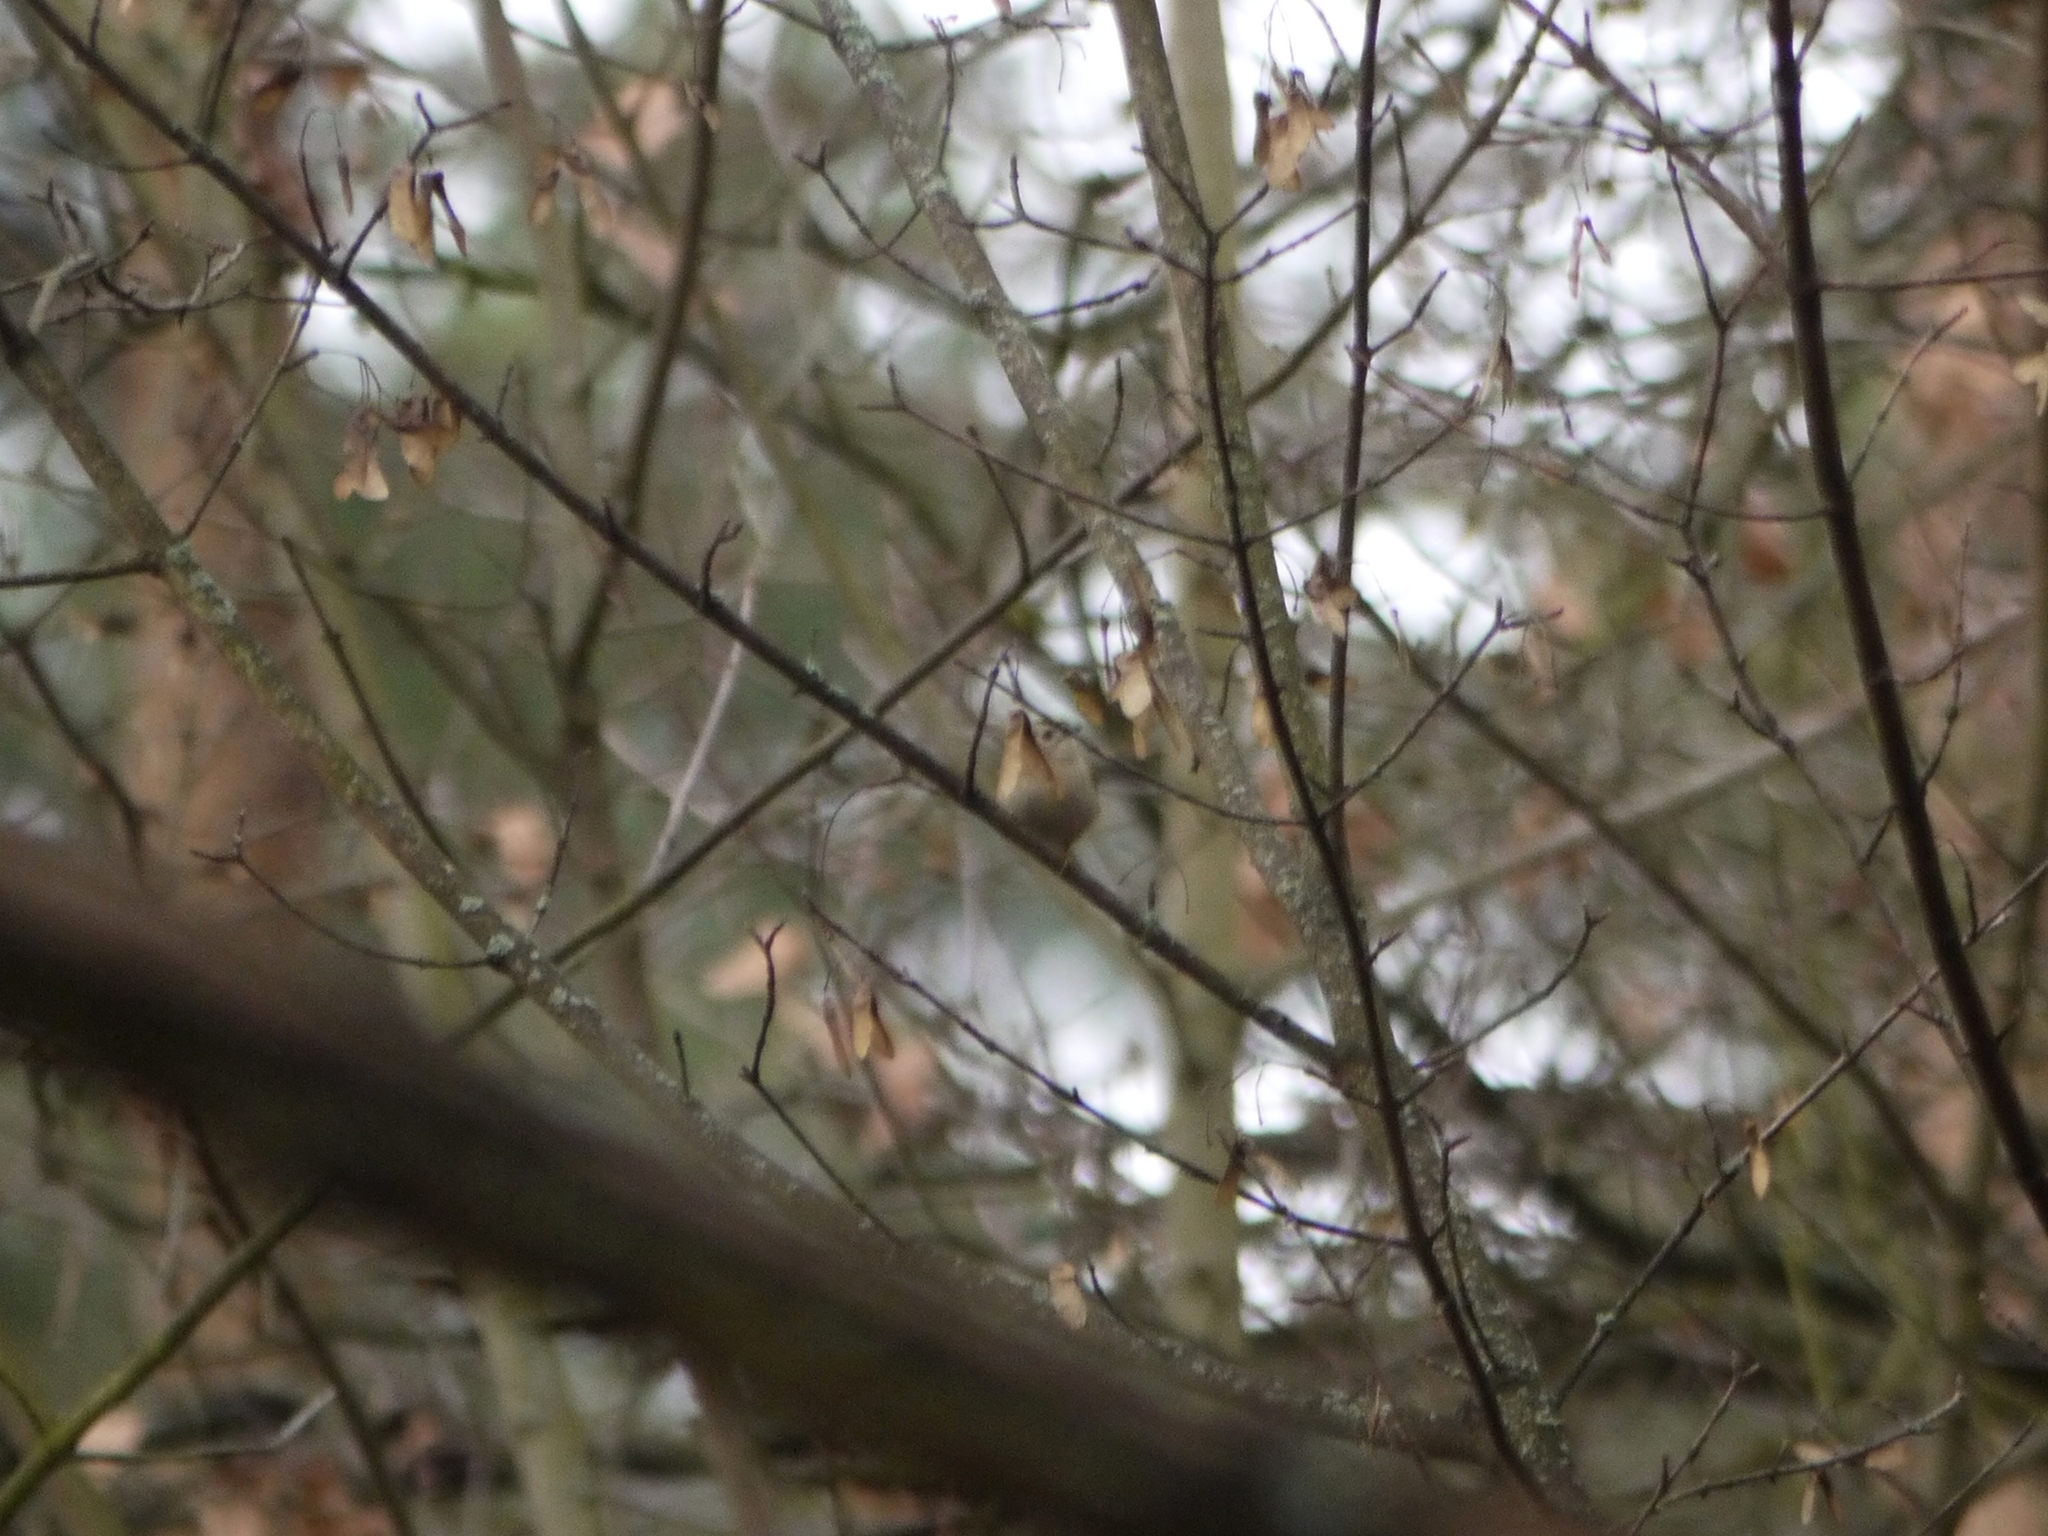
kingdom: Animalia
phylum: Chordata
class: Aves
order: Passeriformes
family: Regulidae
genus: Regulus
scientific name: Regulus regulus
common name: Goldcrest
